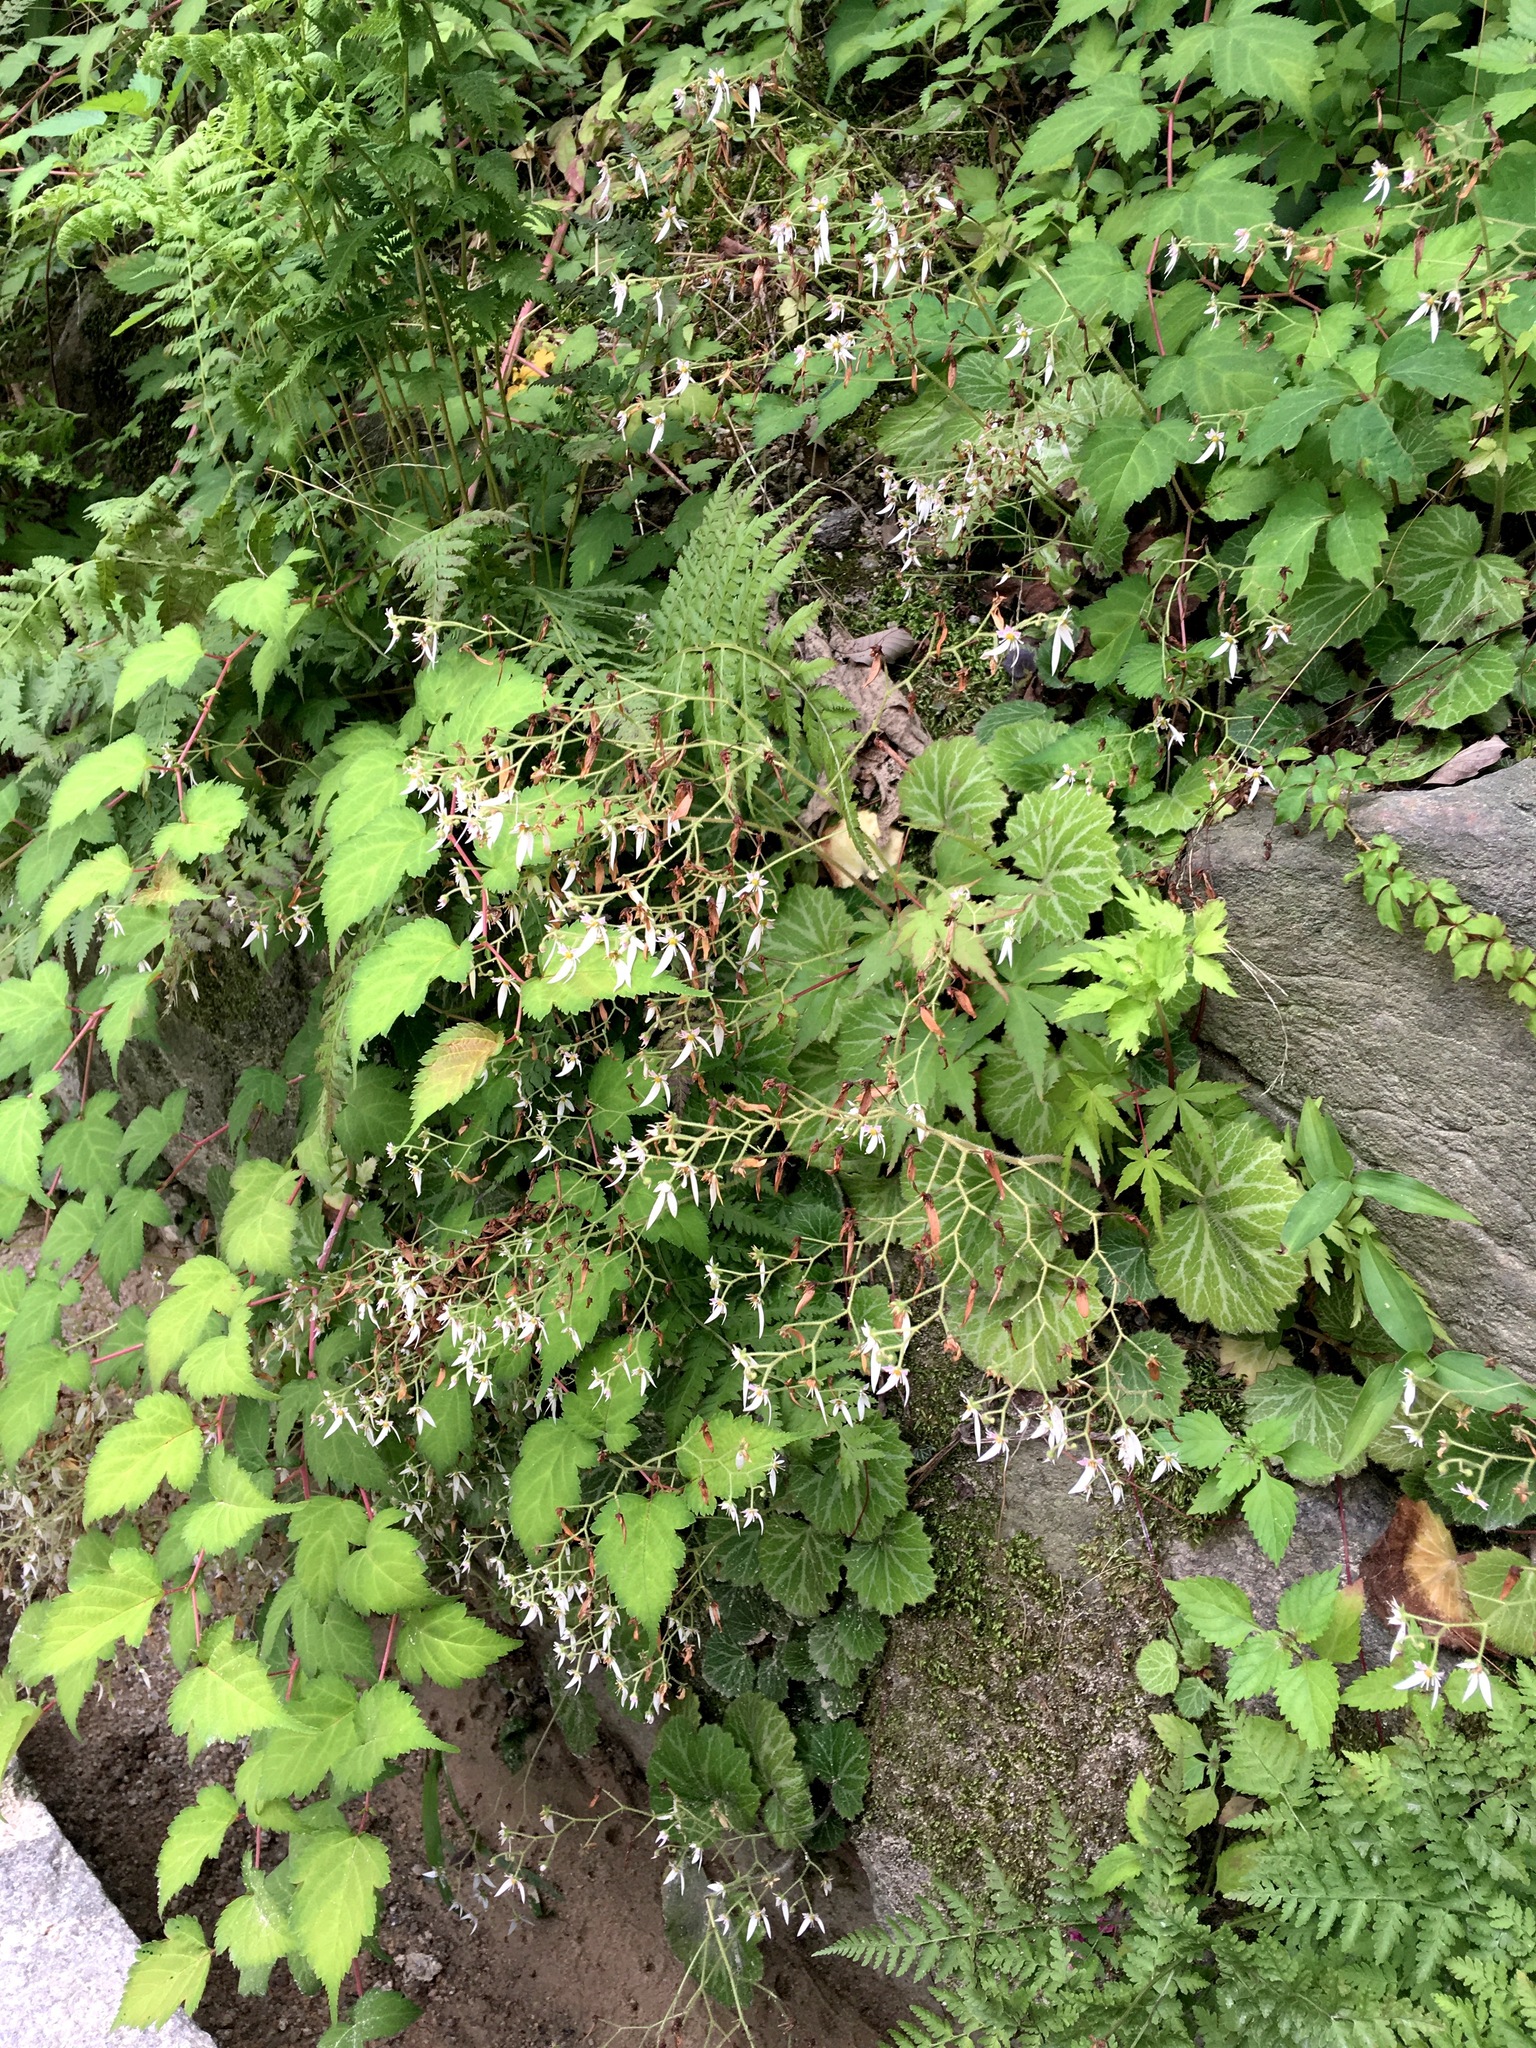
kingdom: Plantae
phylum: Tracheophyta
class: Magnoliopsida
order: Saxifragales
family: Saxifragaceae
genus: Saxifraga
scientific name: Saxifraga stolonifera
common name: Creeping saxifrage
